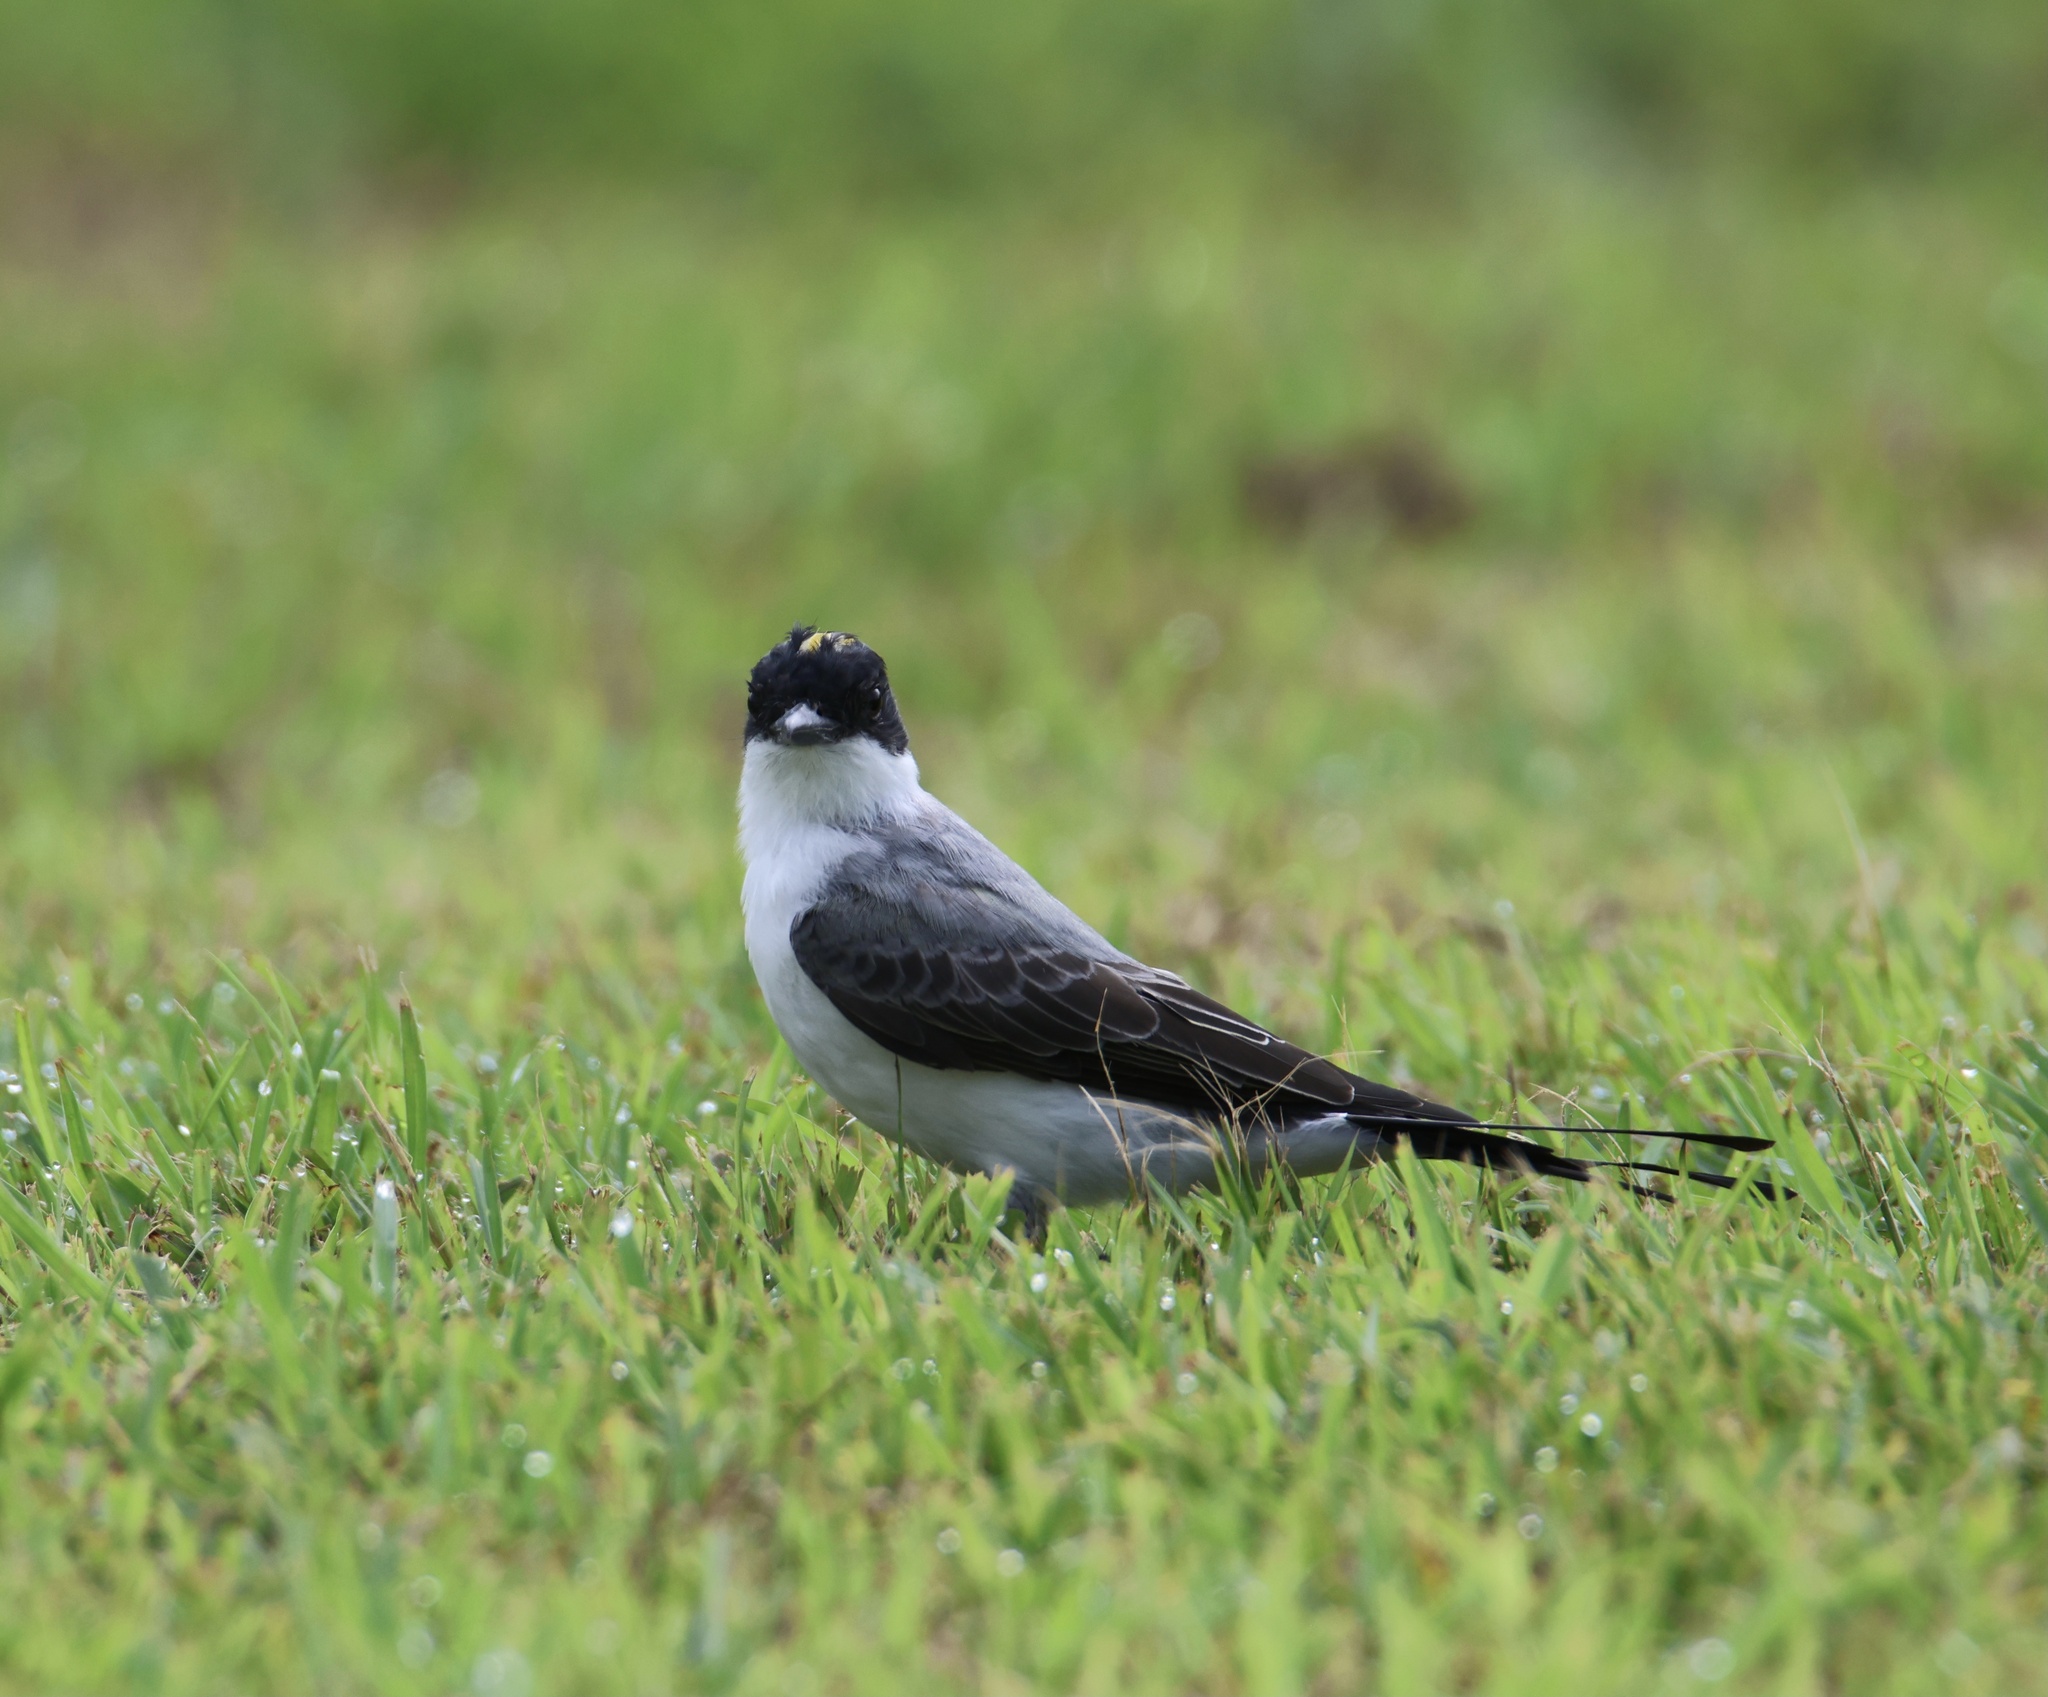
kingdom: Animalia
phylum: Chordata
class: Aves
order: Passeriformes
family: Tyrannidae
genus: Tyrannus
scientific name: Tyrannus savana
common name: Fork-tailed flycatcher
